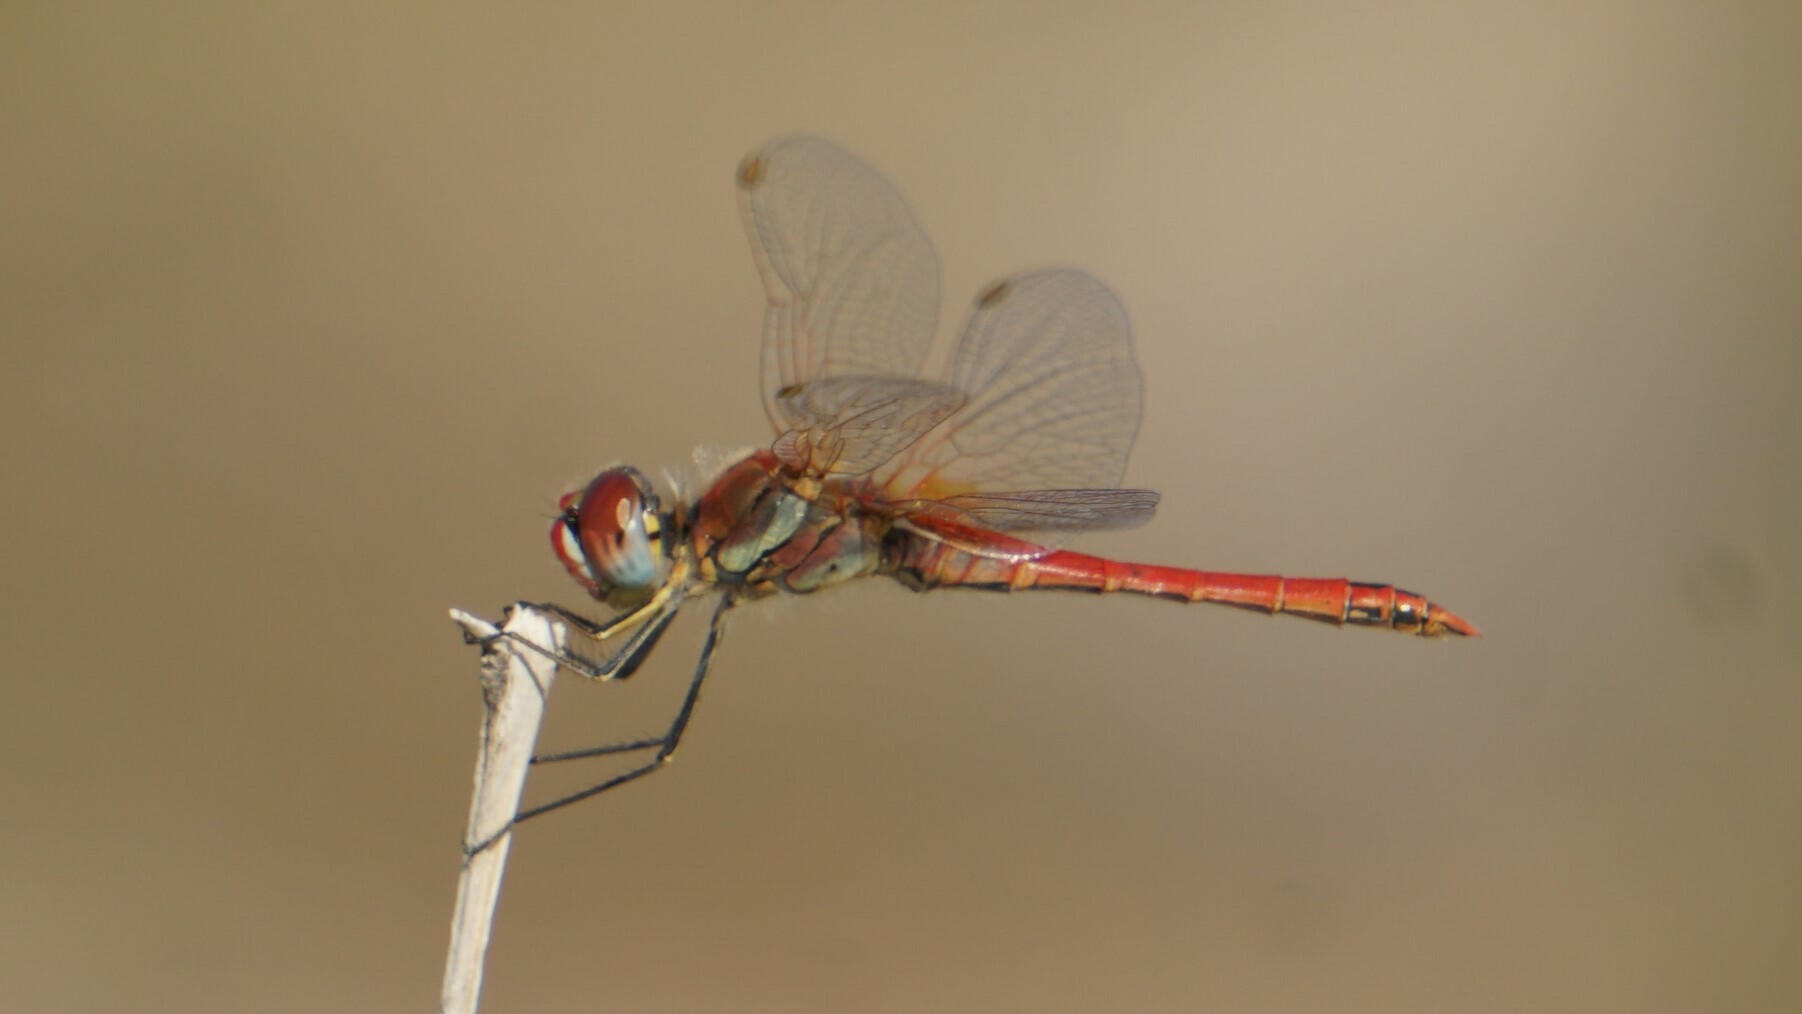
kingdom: Animalia
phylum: Arthropoda
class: Insecta
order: Odonata
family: Libellulidae
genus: Sympetrum
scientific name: Sympetrum fonscolombii
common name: Red-veined darter
